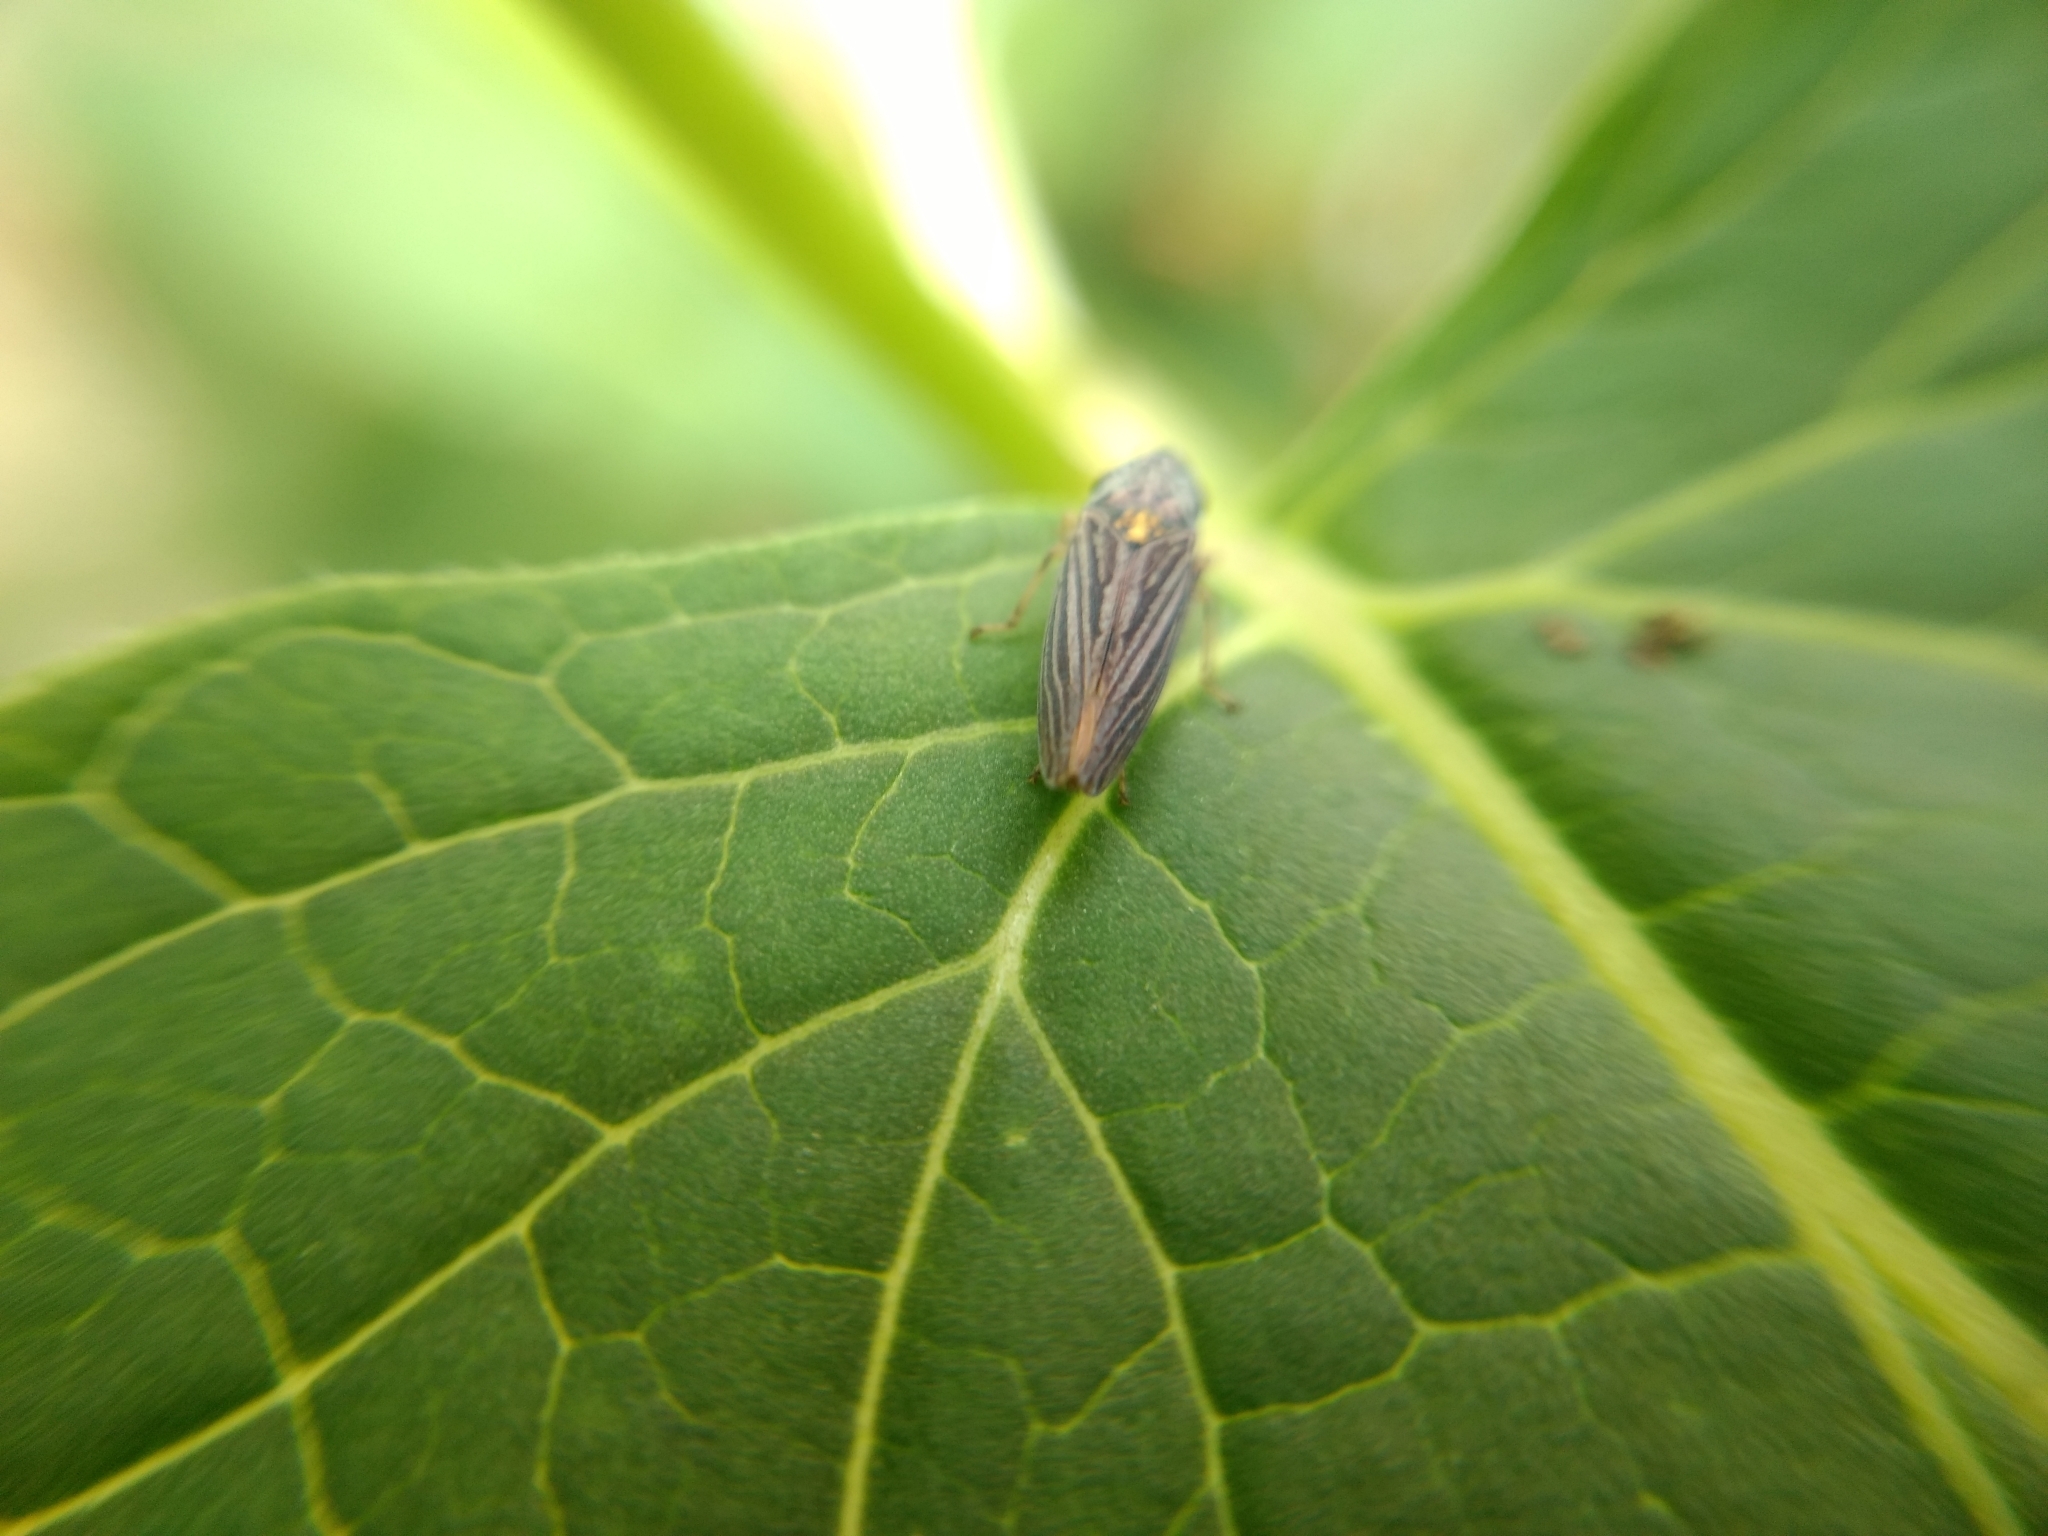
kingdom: Animalia
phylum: Arthropoda
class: Insecta
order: Hemiptera
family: Cicadellidae
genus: Graphocephala
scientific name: Graphocephala appropinquans
